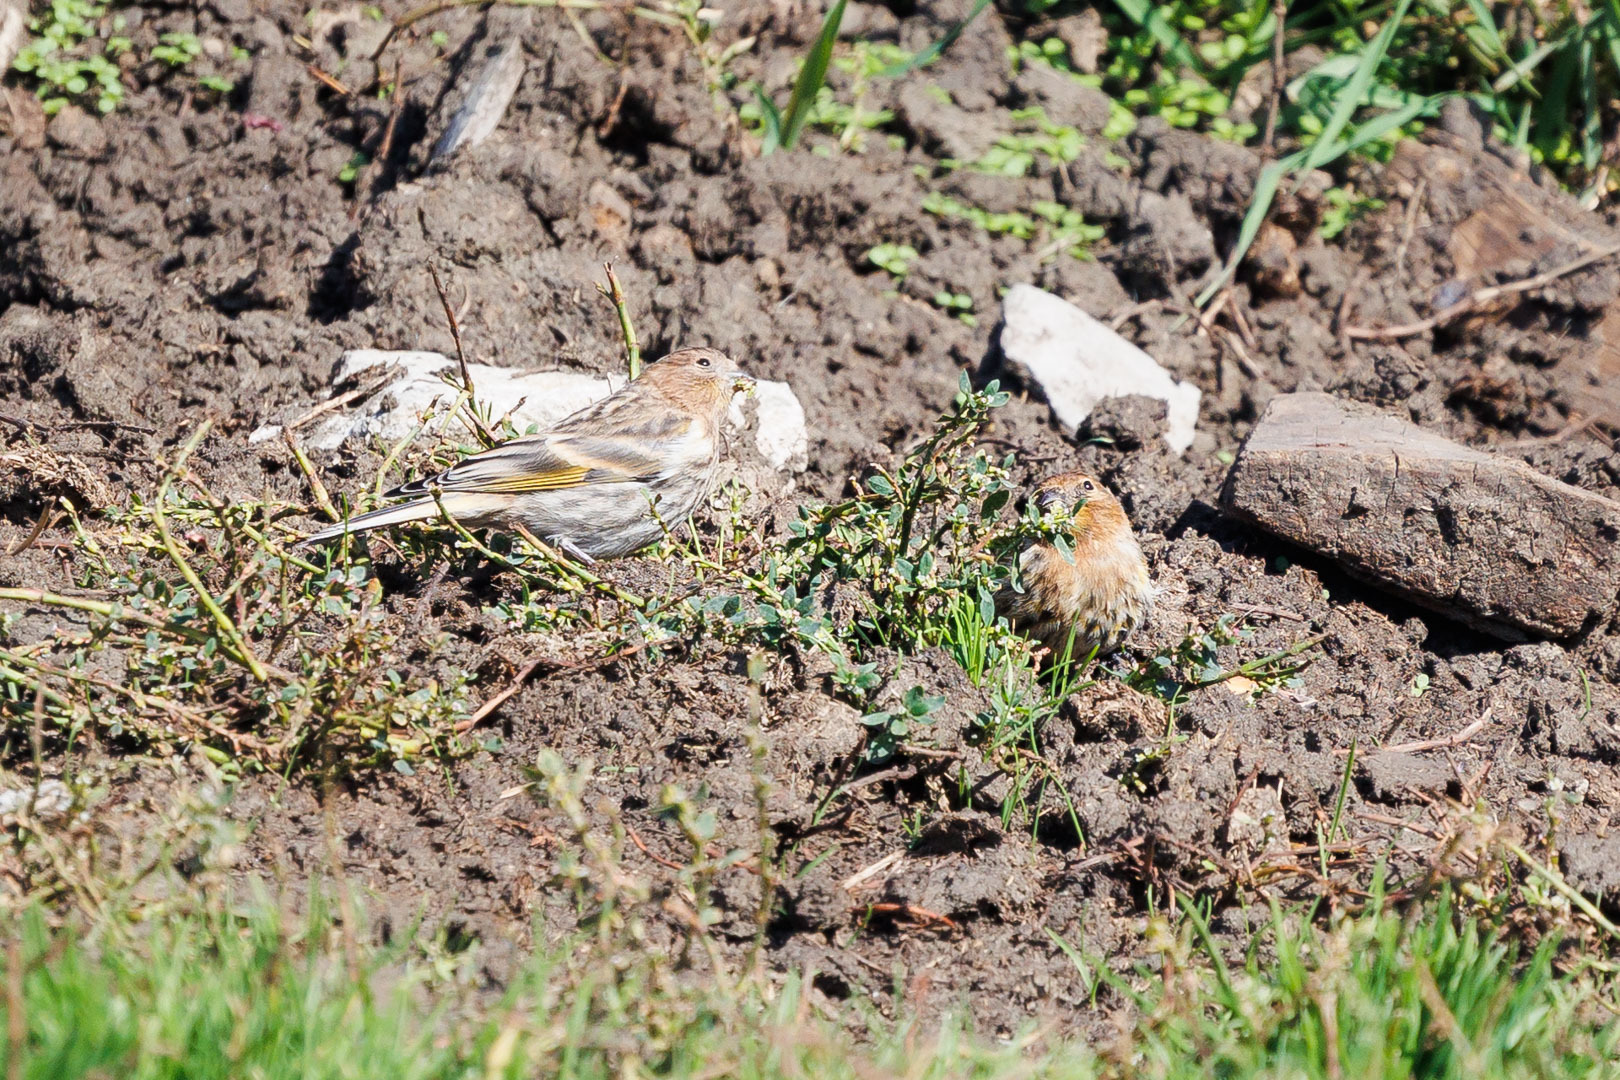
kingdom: Animalia
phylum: Chordata
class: Aves
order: Passeriformes
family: Fringillidae
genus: Serinus
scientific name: Serinus pusillus
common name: Red-fronted serin
